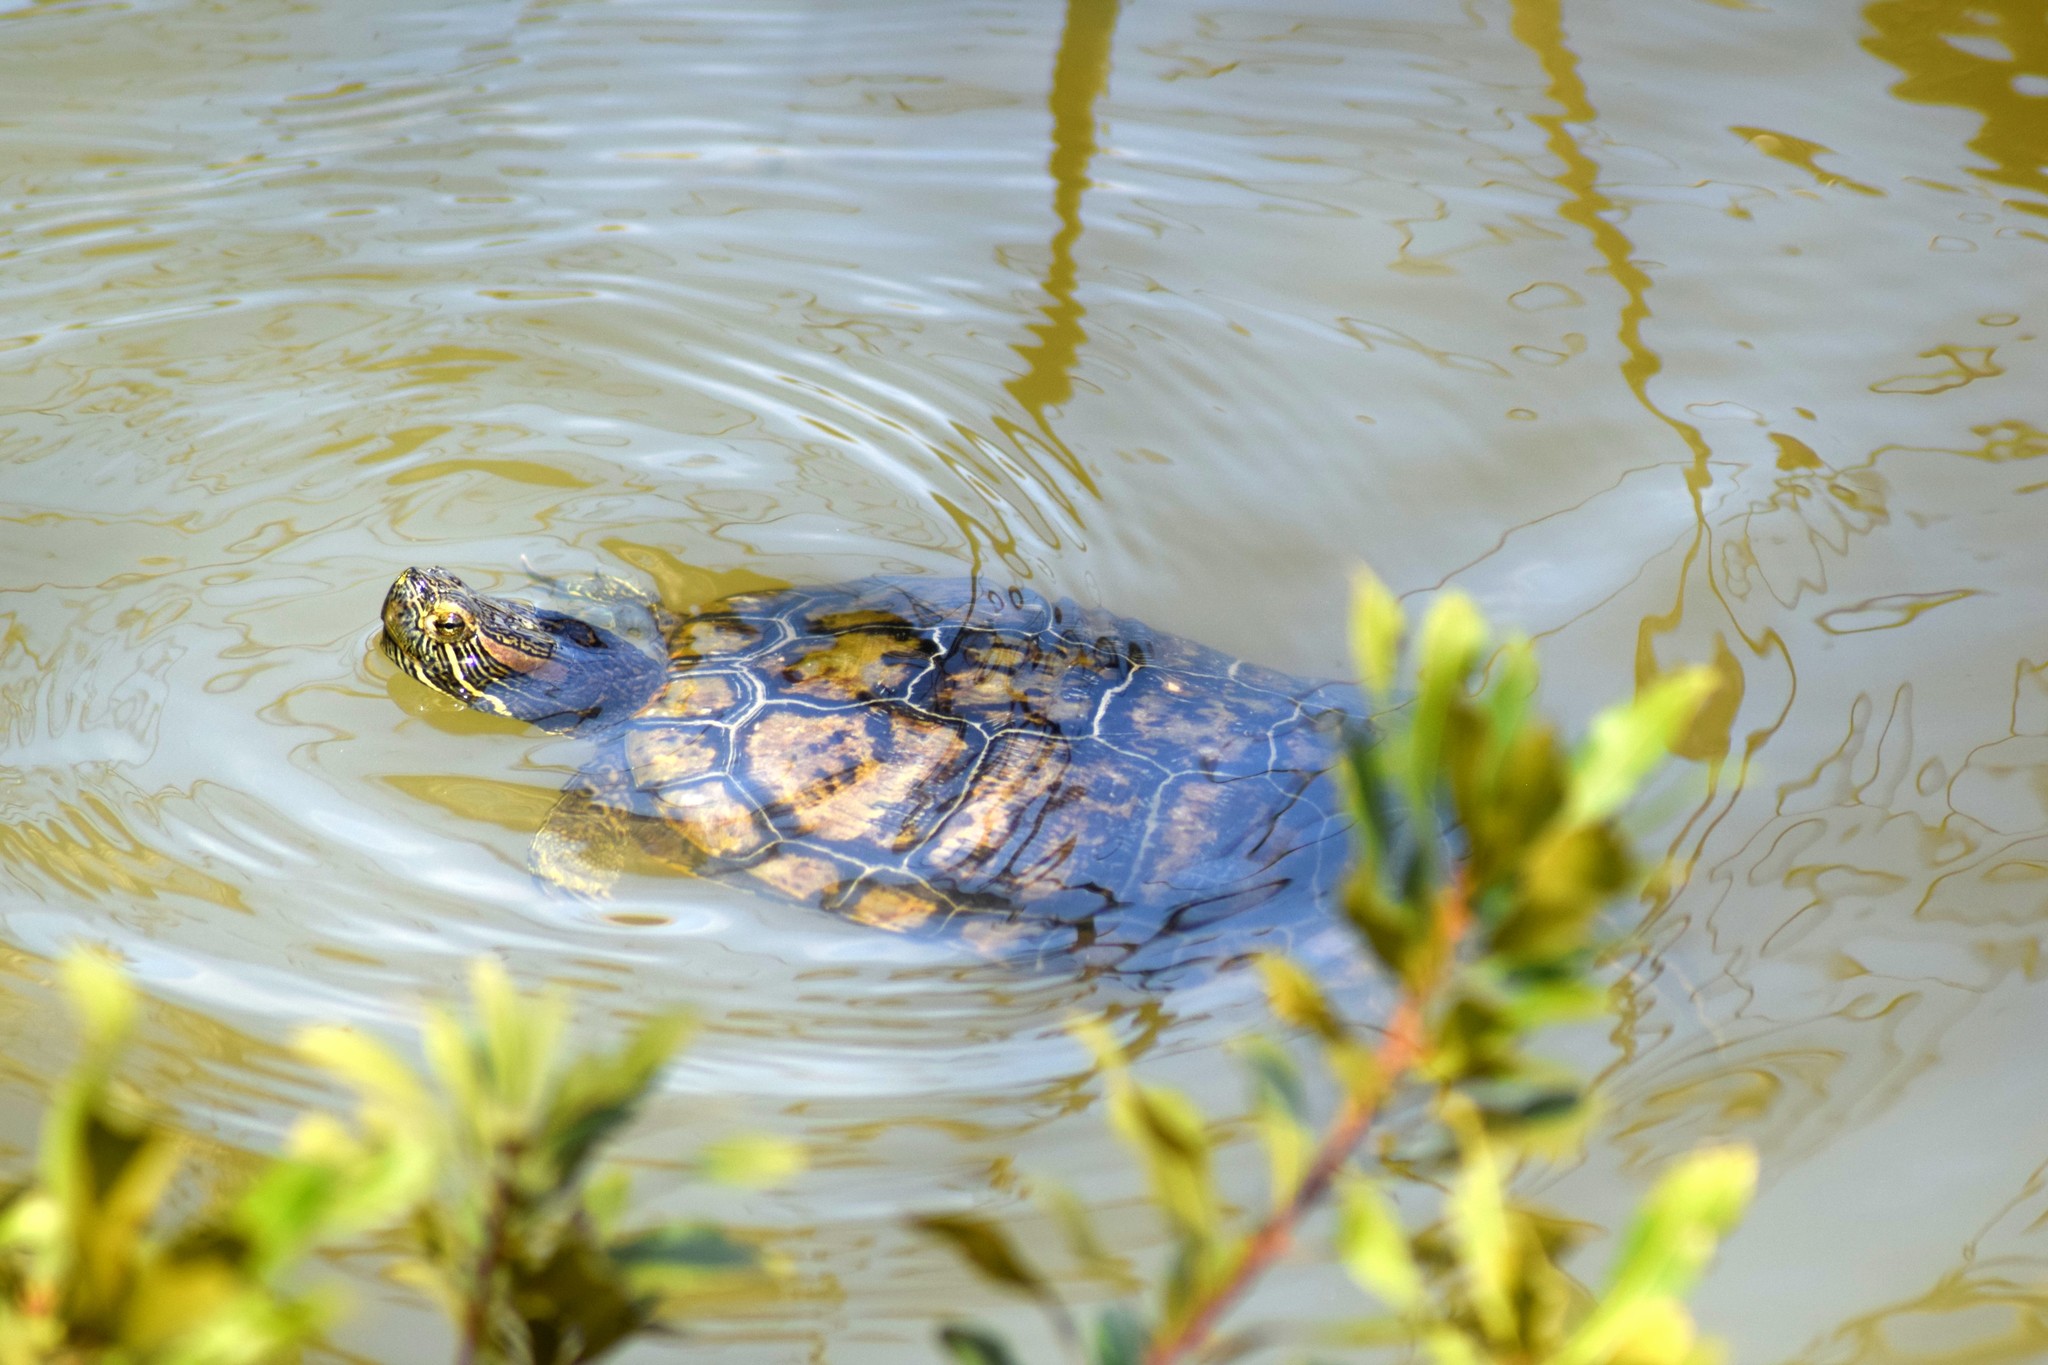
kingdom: Animalia
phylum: Chordata
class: Testudines
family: Emydidae
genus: Trachemys
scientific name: Trachemys scripta
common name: Slider
